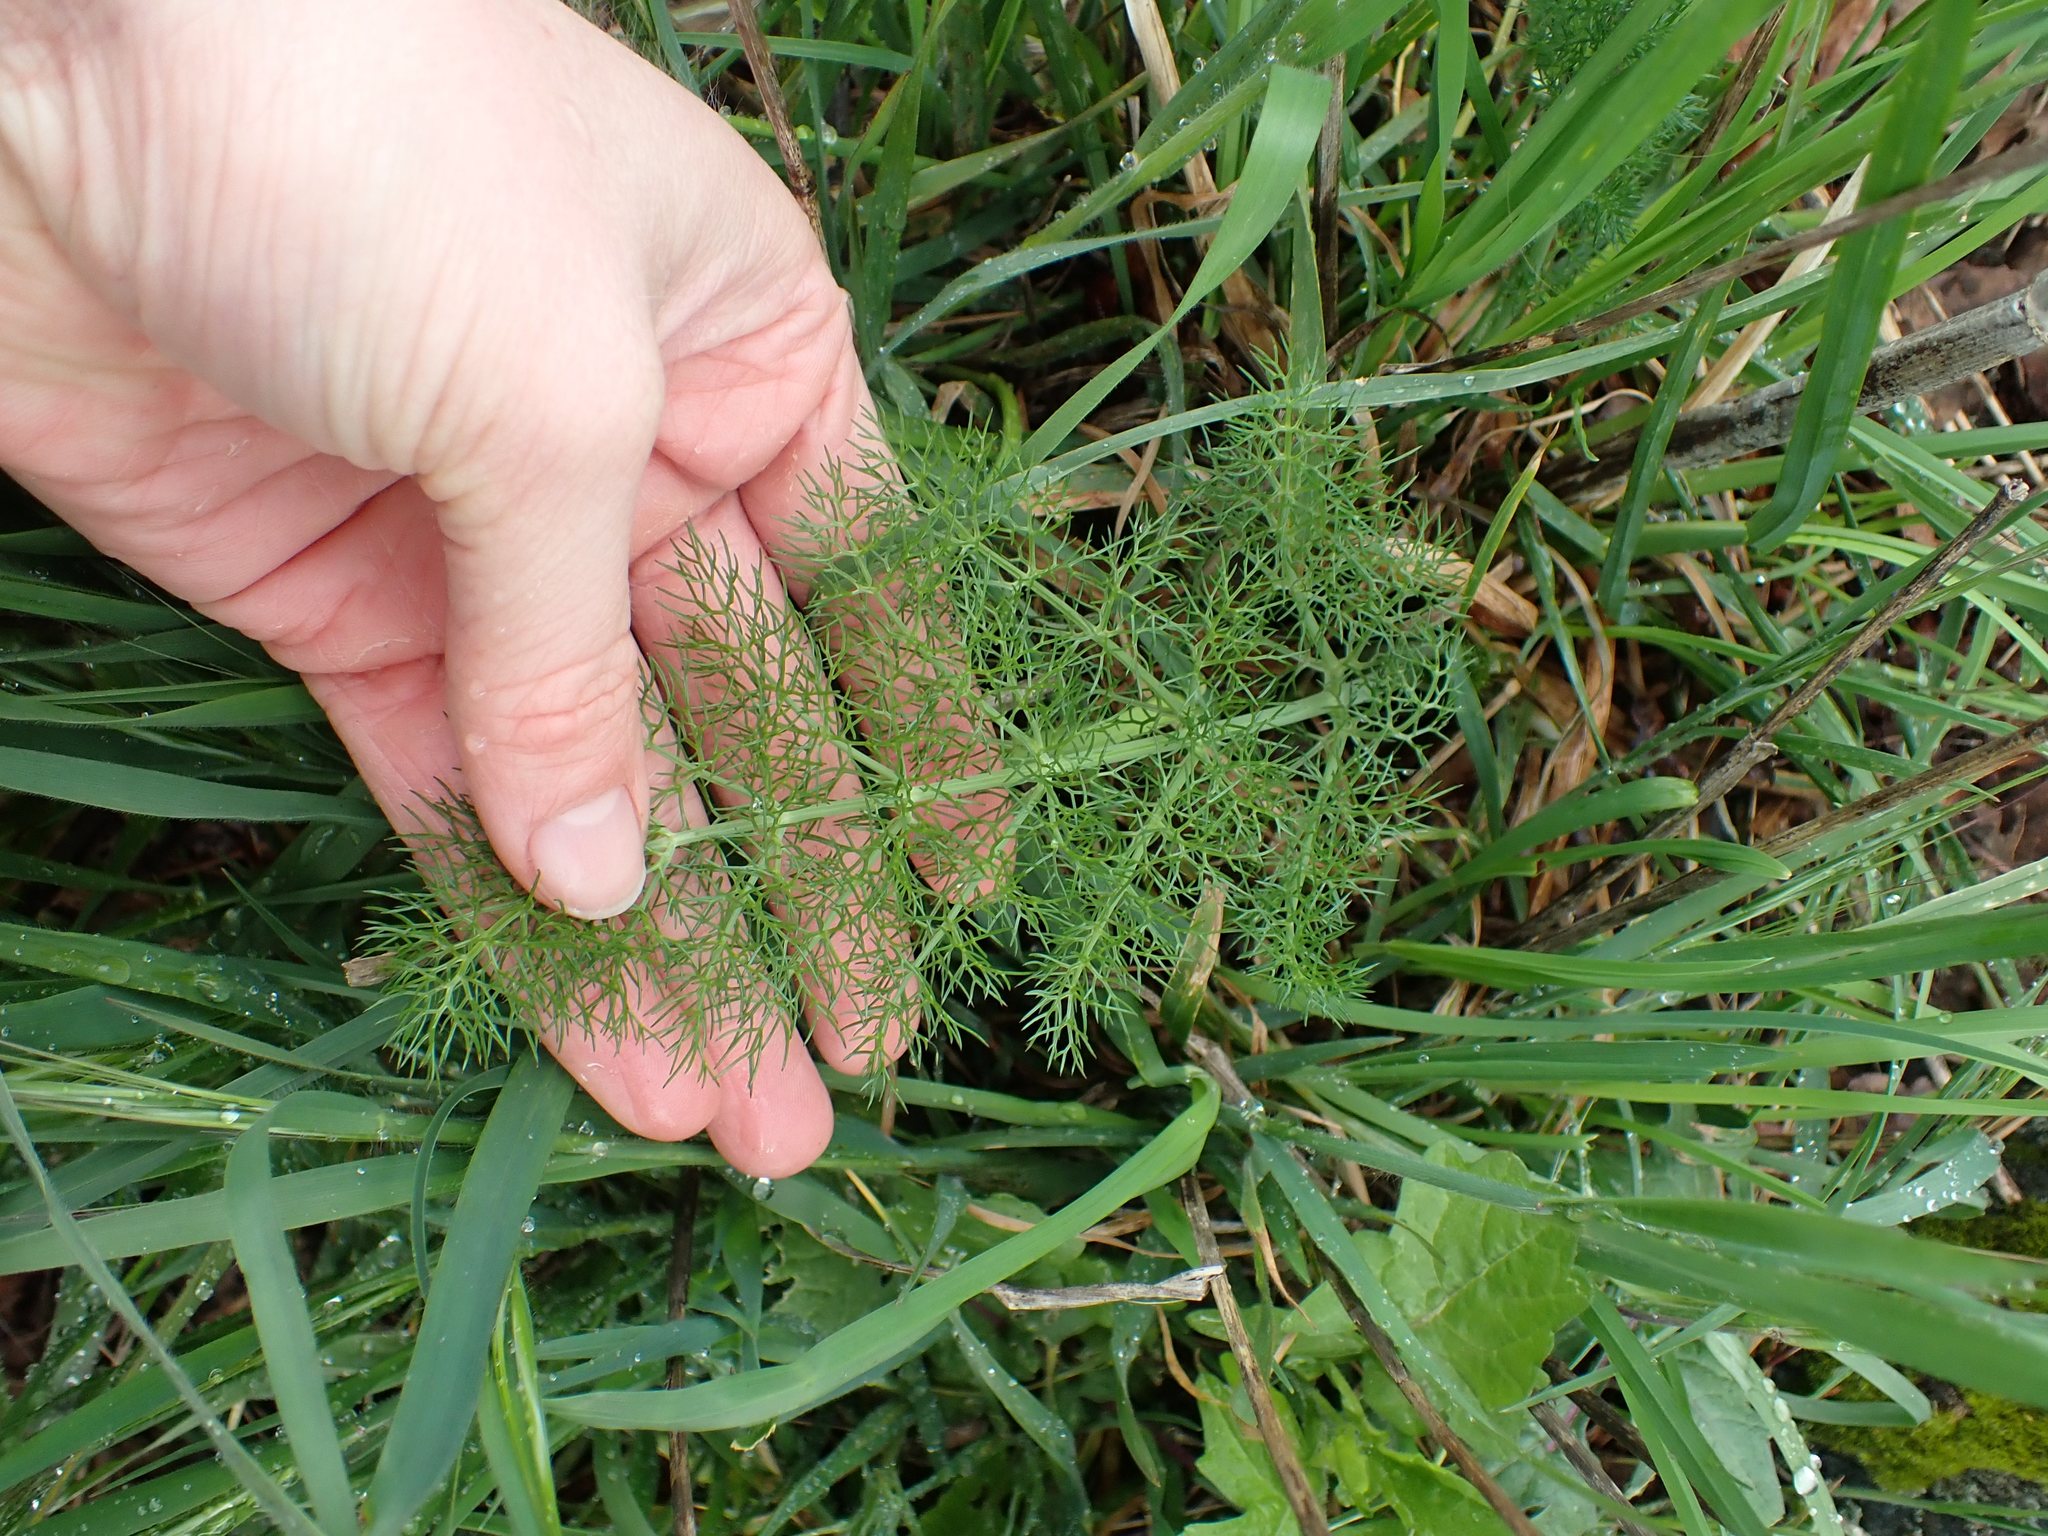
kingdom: Plantae
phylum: Tracheophyta
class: Magnoliopsida
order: Apiales
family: Apiaceae
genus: Foeniculum
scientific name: Foeniculum vulgare
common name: Fennel
